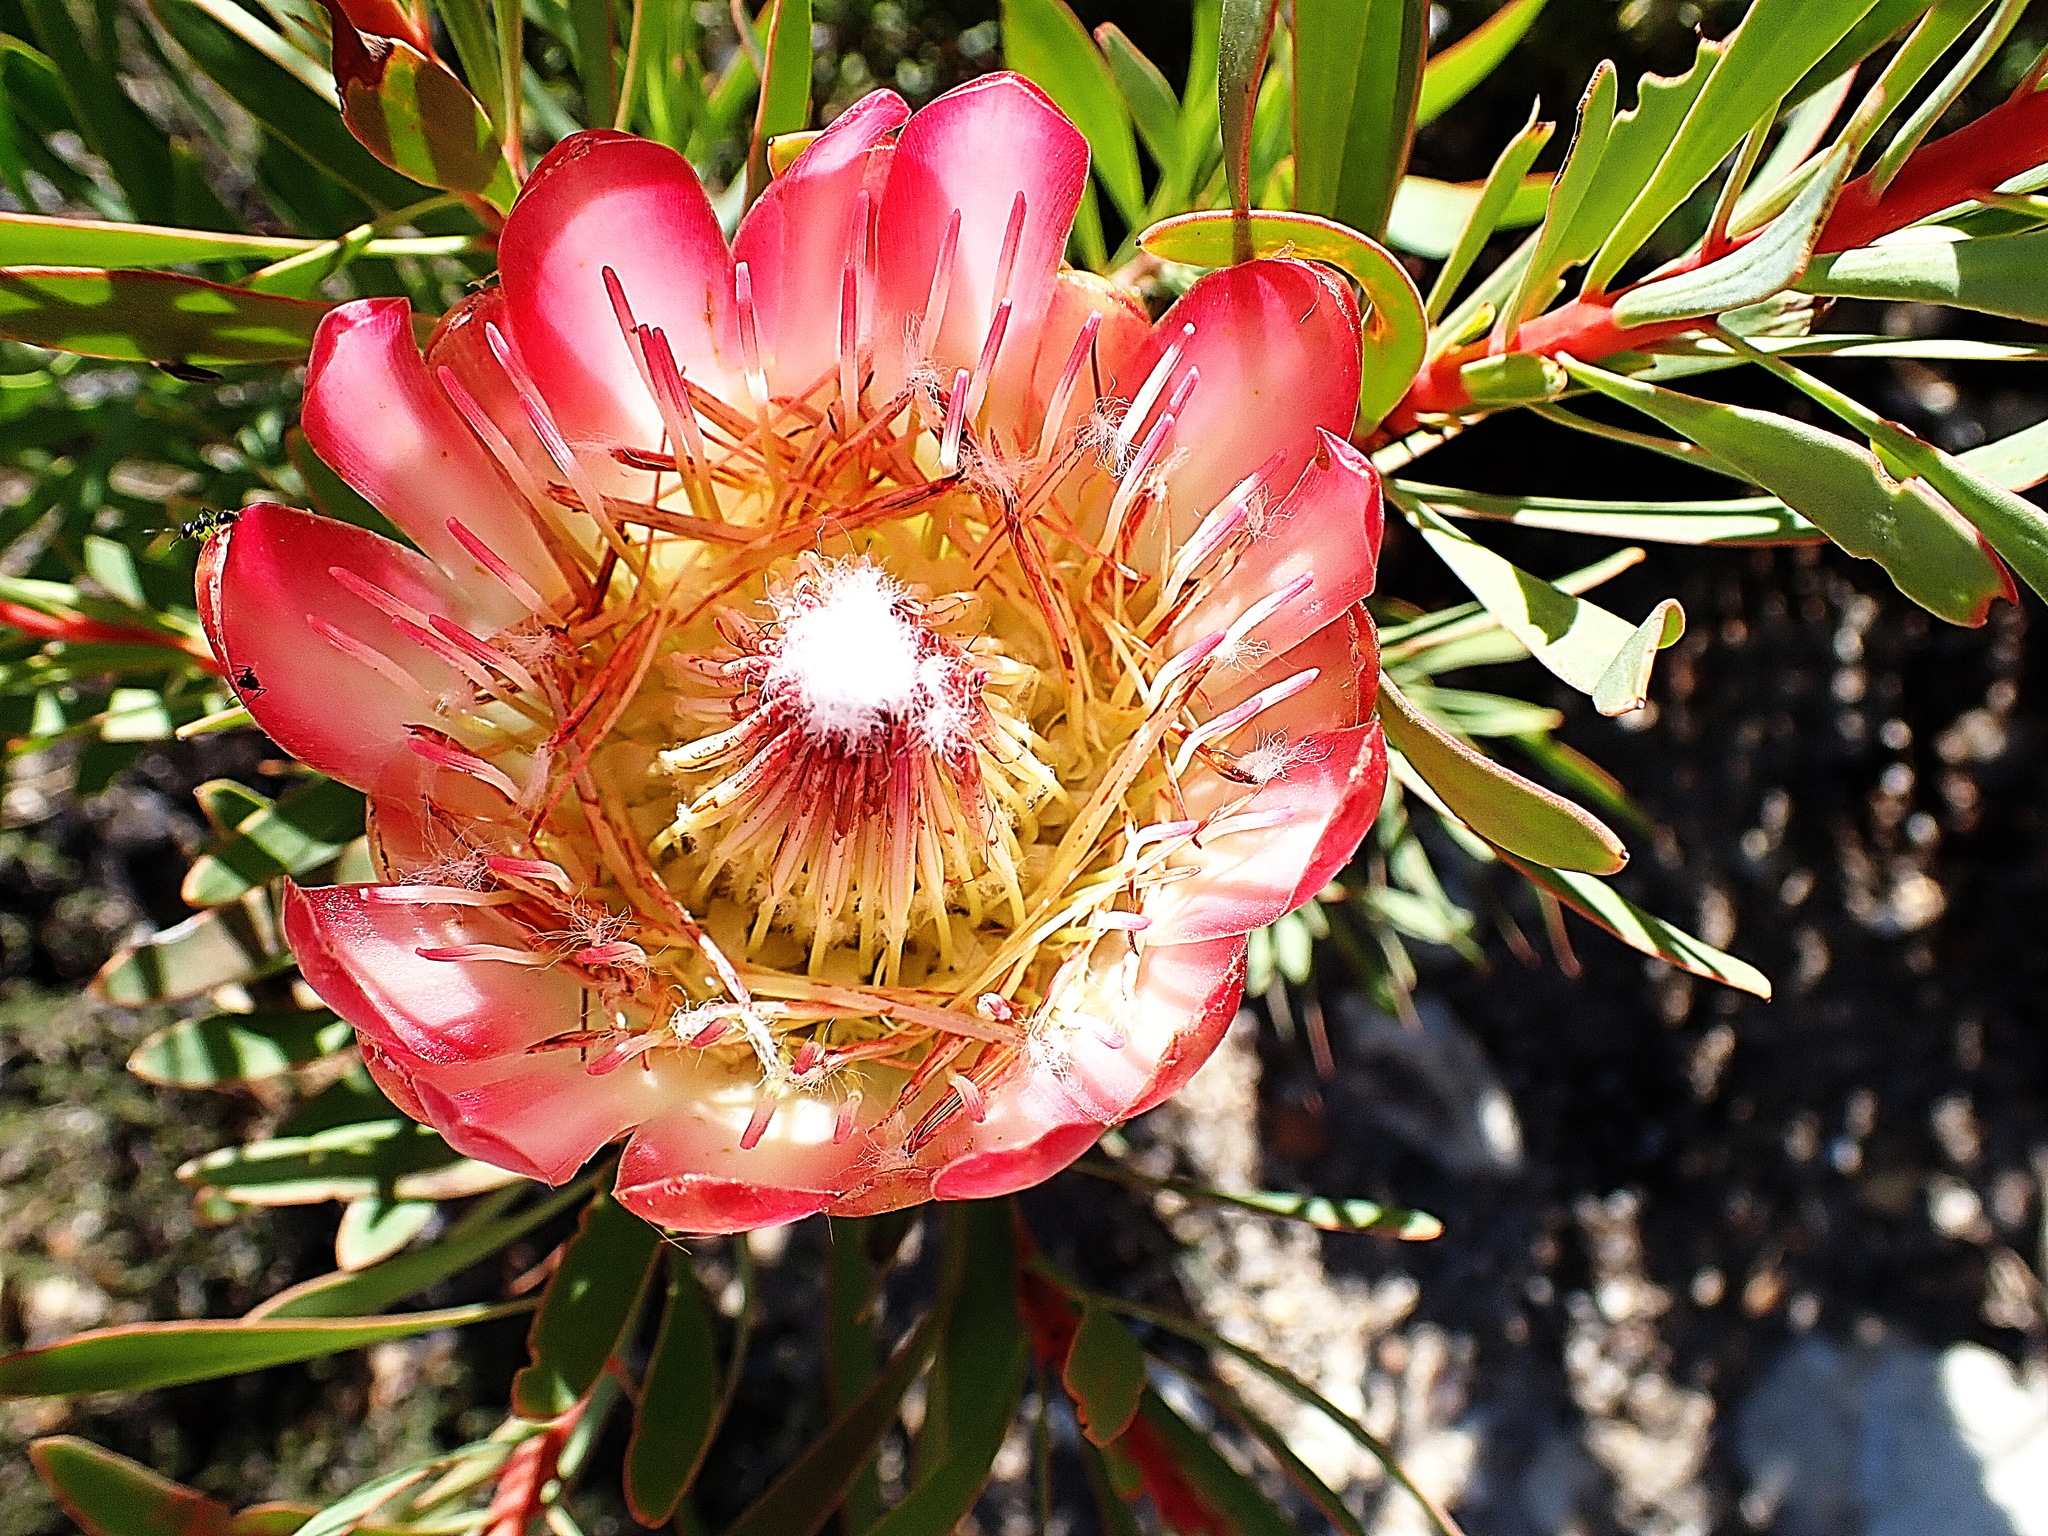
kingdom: Plantae
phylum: Tracheophyta
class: Magnoliopsida
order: Proteales
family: Proteaceae
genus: Protea
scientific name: Protea repens
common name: Sugarbush
